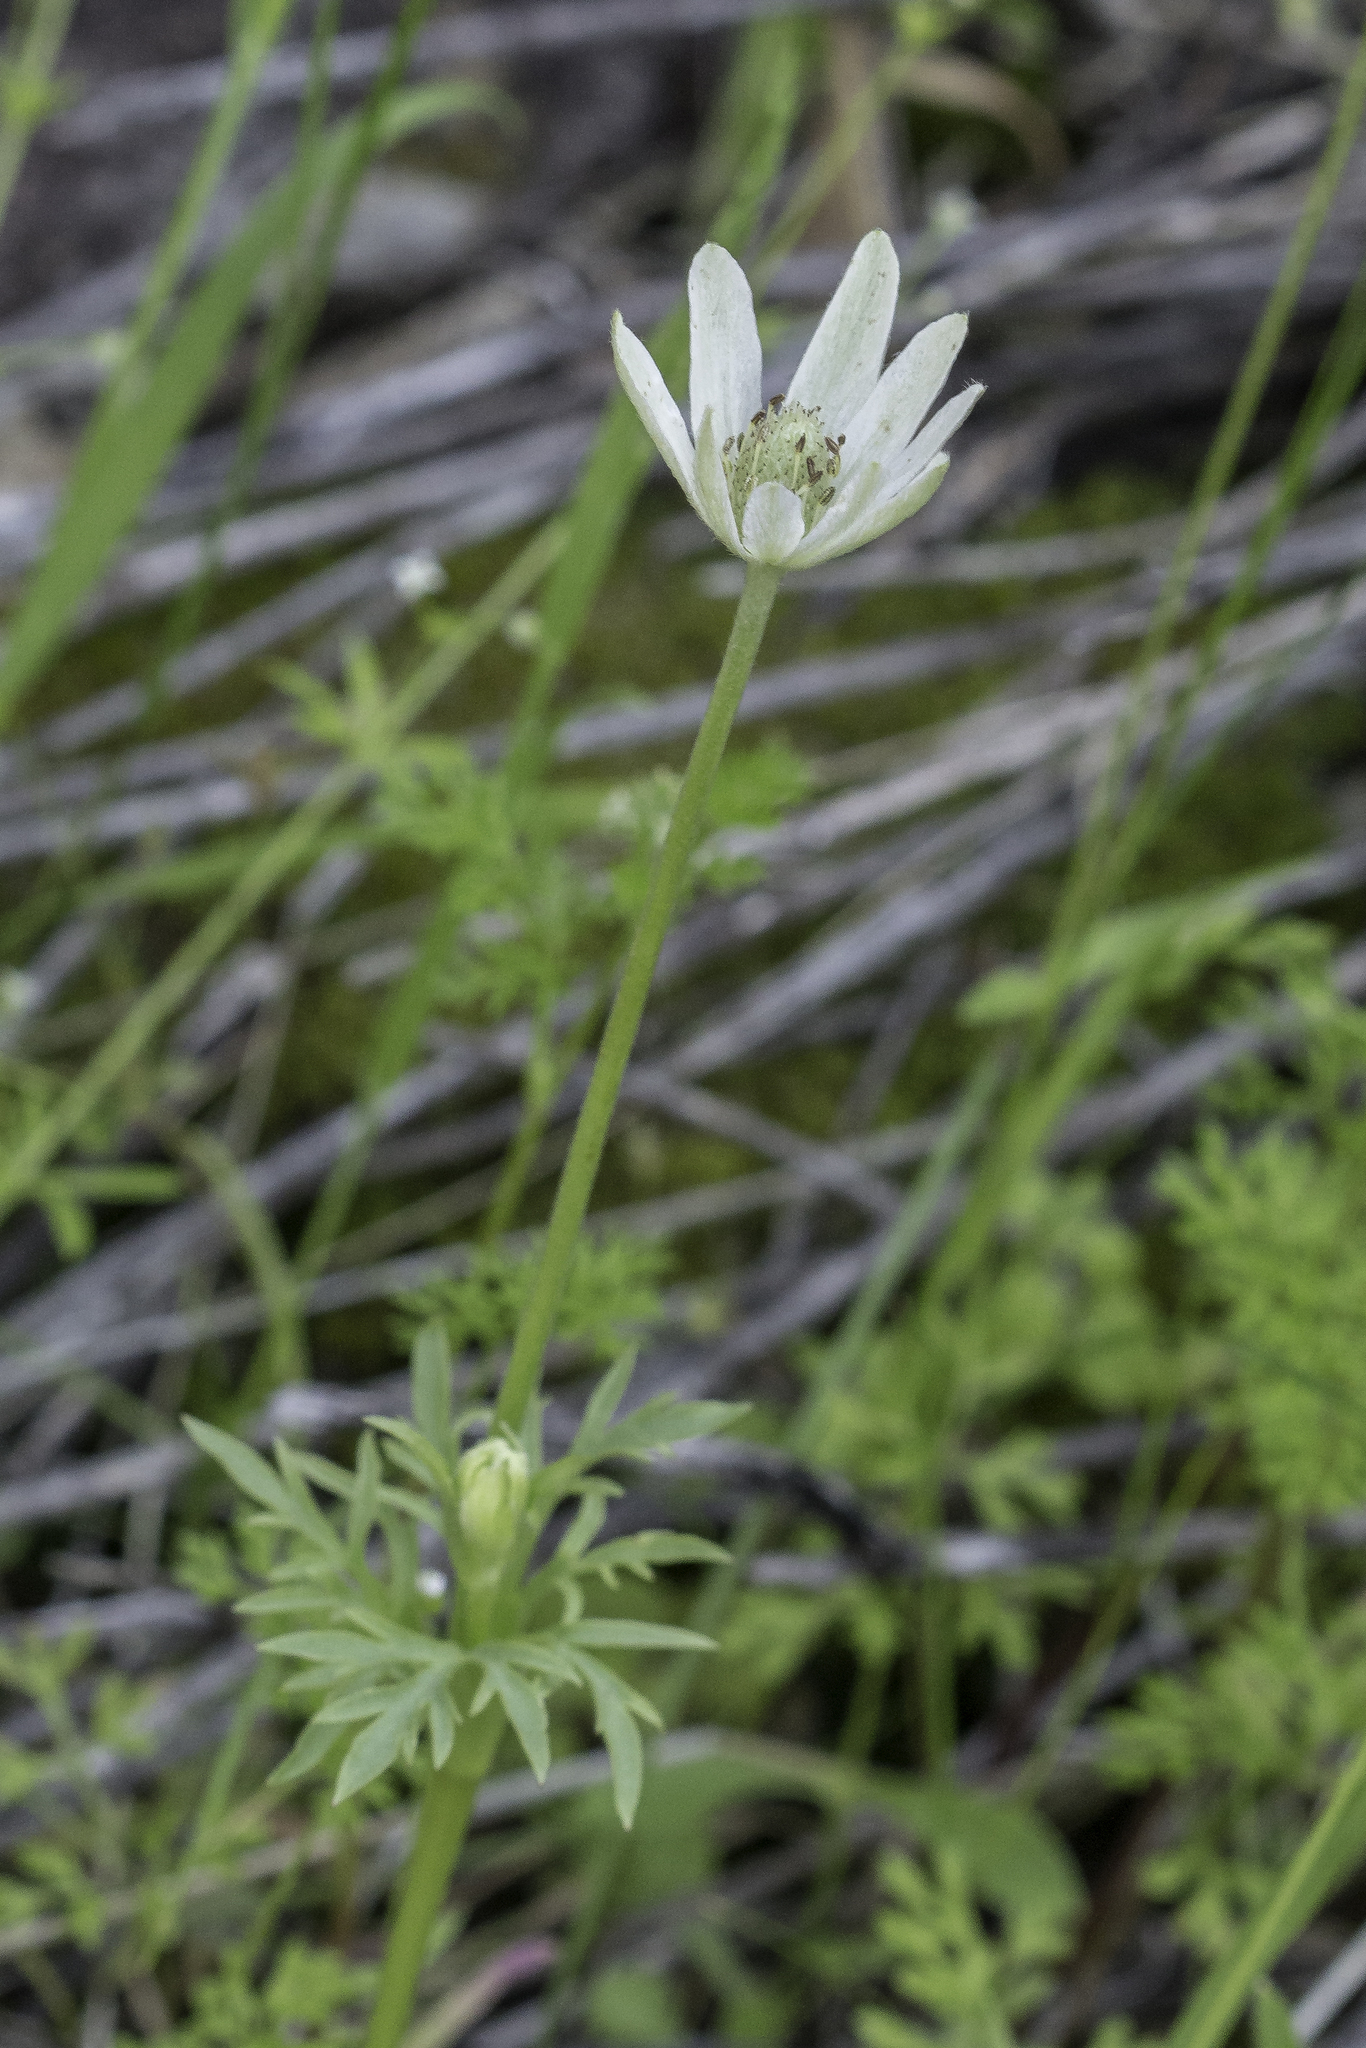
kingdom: Plantae
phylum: Tracheophyta
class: Magnoliopsida
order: Ranunculales
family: Ranunculaceae
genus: Anemone
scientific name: Anemone tuberosa
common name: Desert anemone
